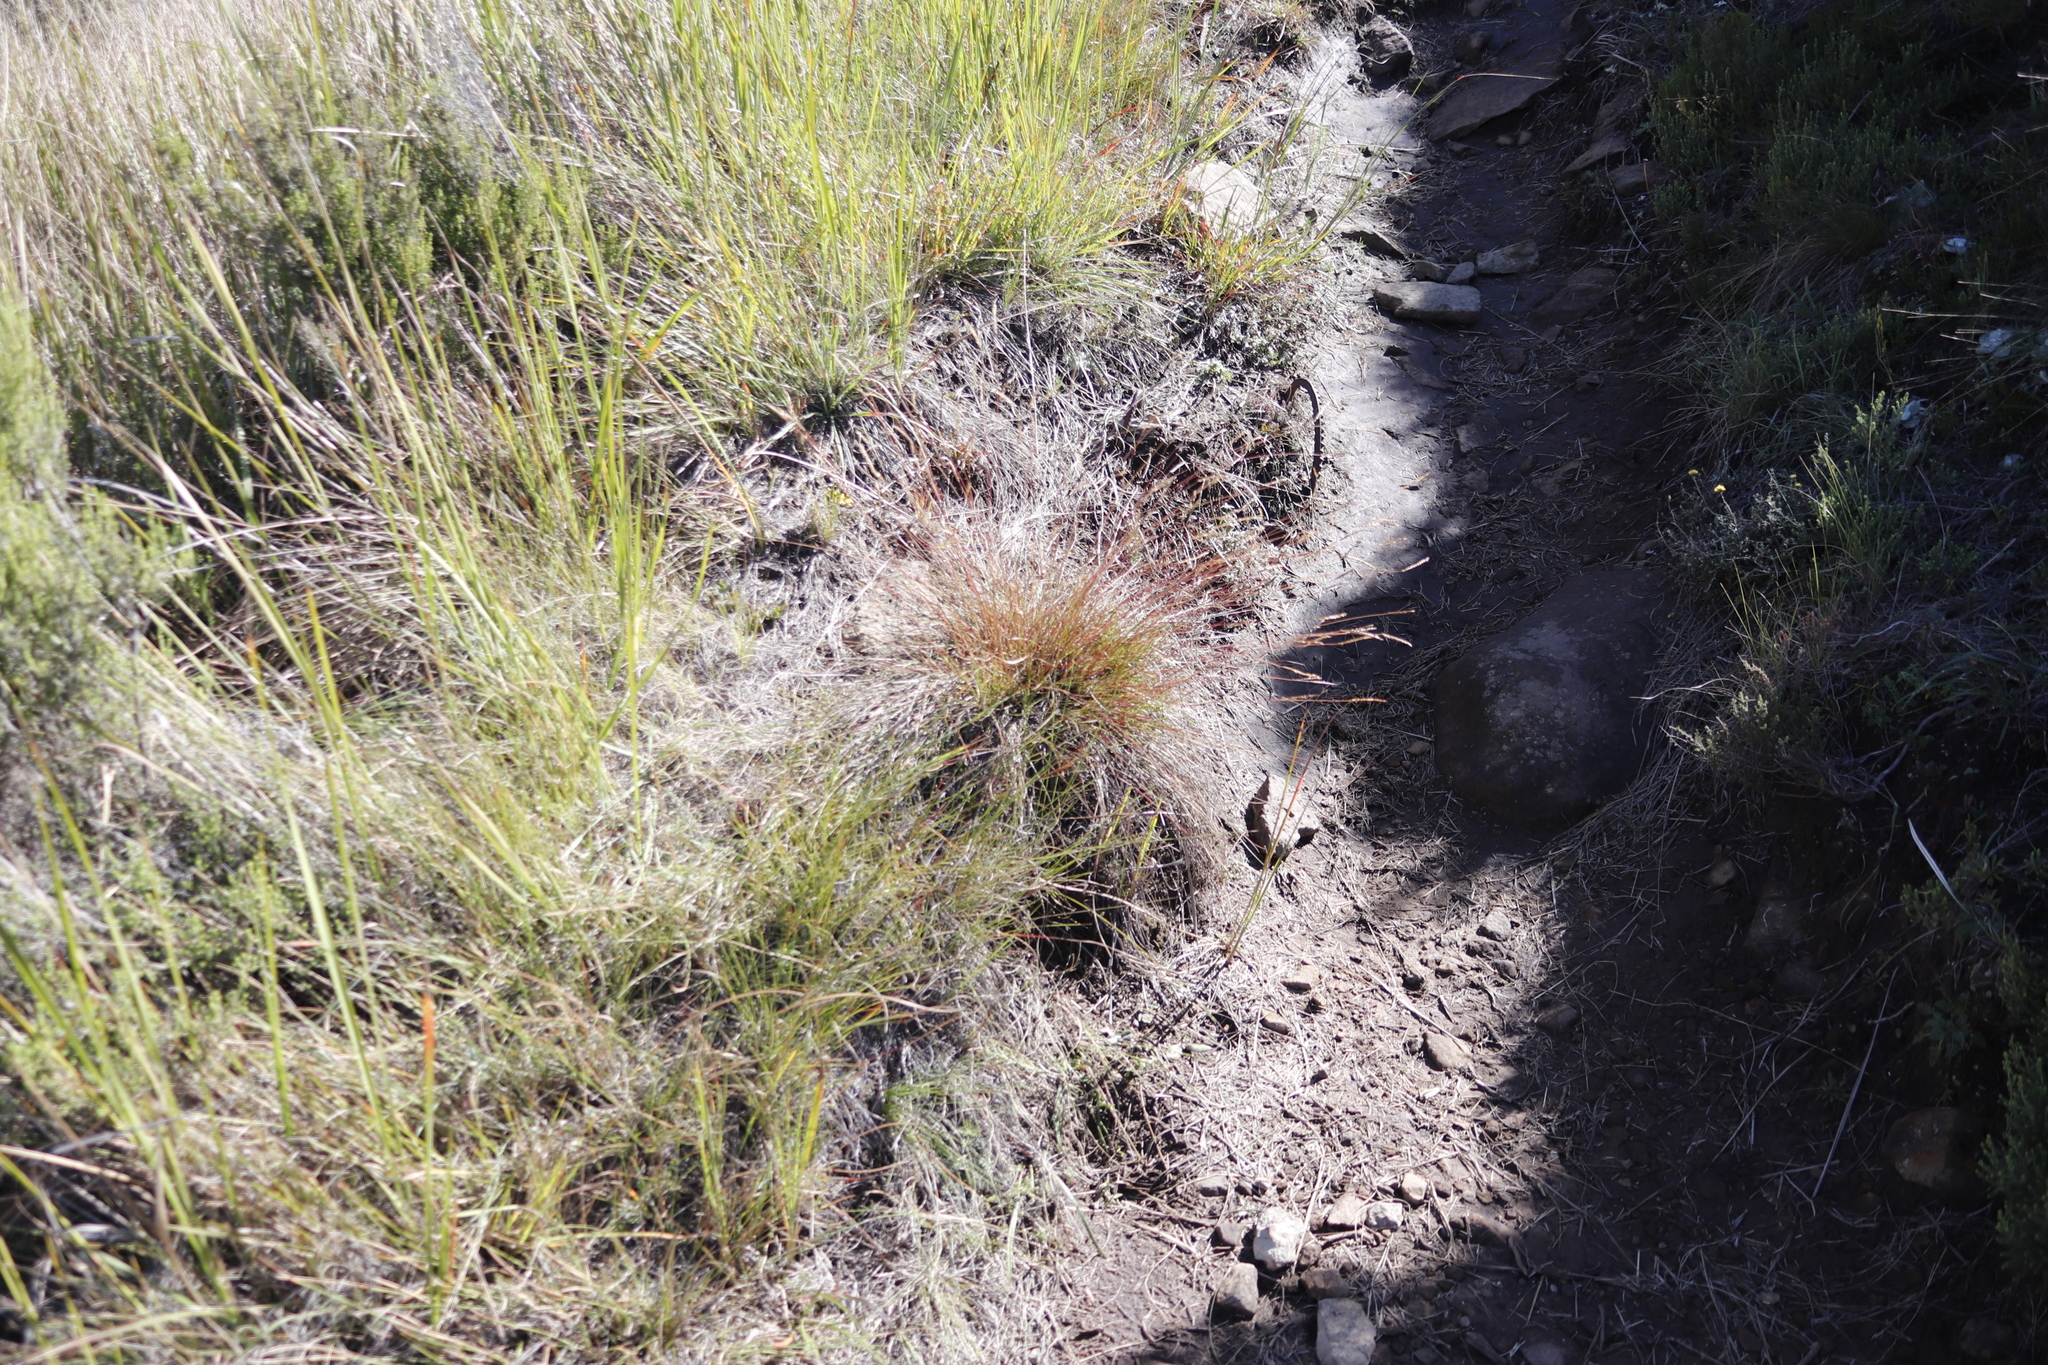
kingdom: Plantae
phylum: Tracheophyta
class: Liliopsida
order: Poales
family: Poaceae
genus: Microchloa
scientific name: Microchloa altera
